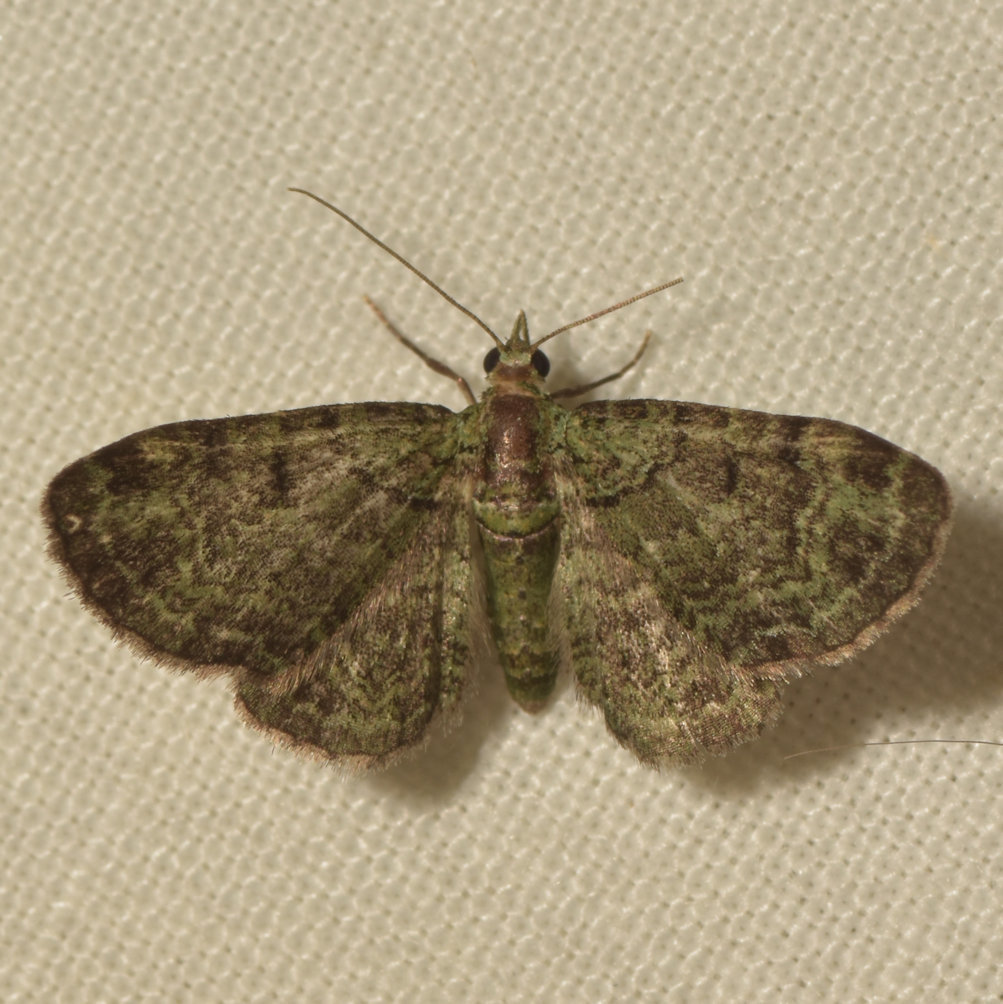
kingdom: Animalia
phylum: Arthropoda
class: Insecta
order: Lepidoptera
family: Geometridae
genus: Pasiphila
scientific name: Pasiphila rectangulata
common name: Green pug
